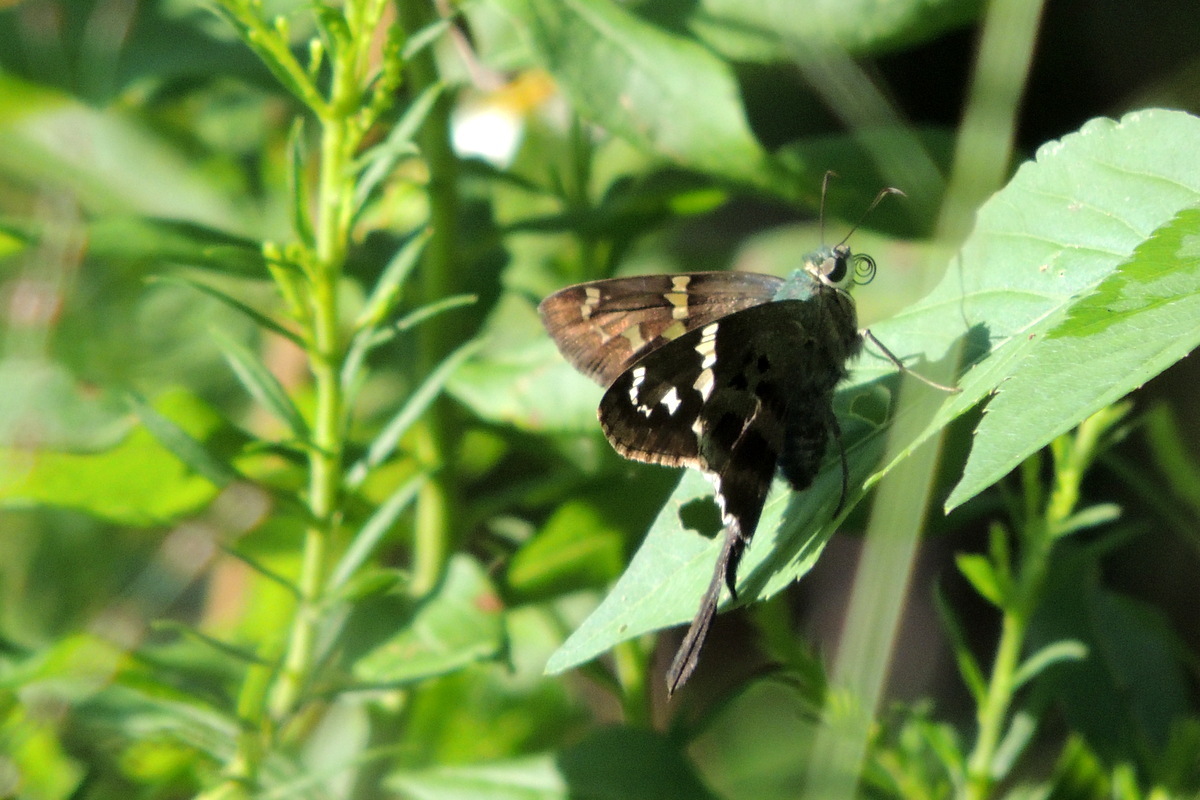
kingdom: Animalia
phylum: Arthropoda
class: Insecta
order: Lepidoptera
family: Hesperiidae
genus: Urbanus
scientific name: Urbanus proteus
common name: Long-tailed skipper
